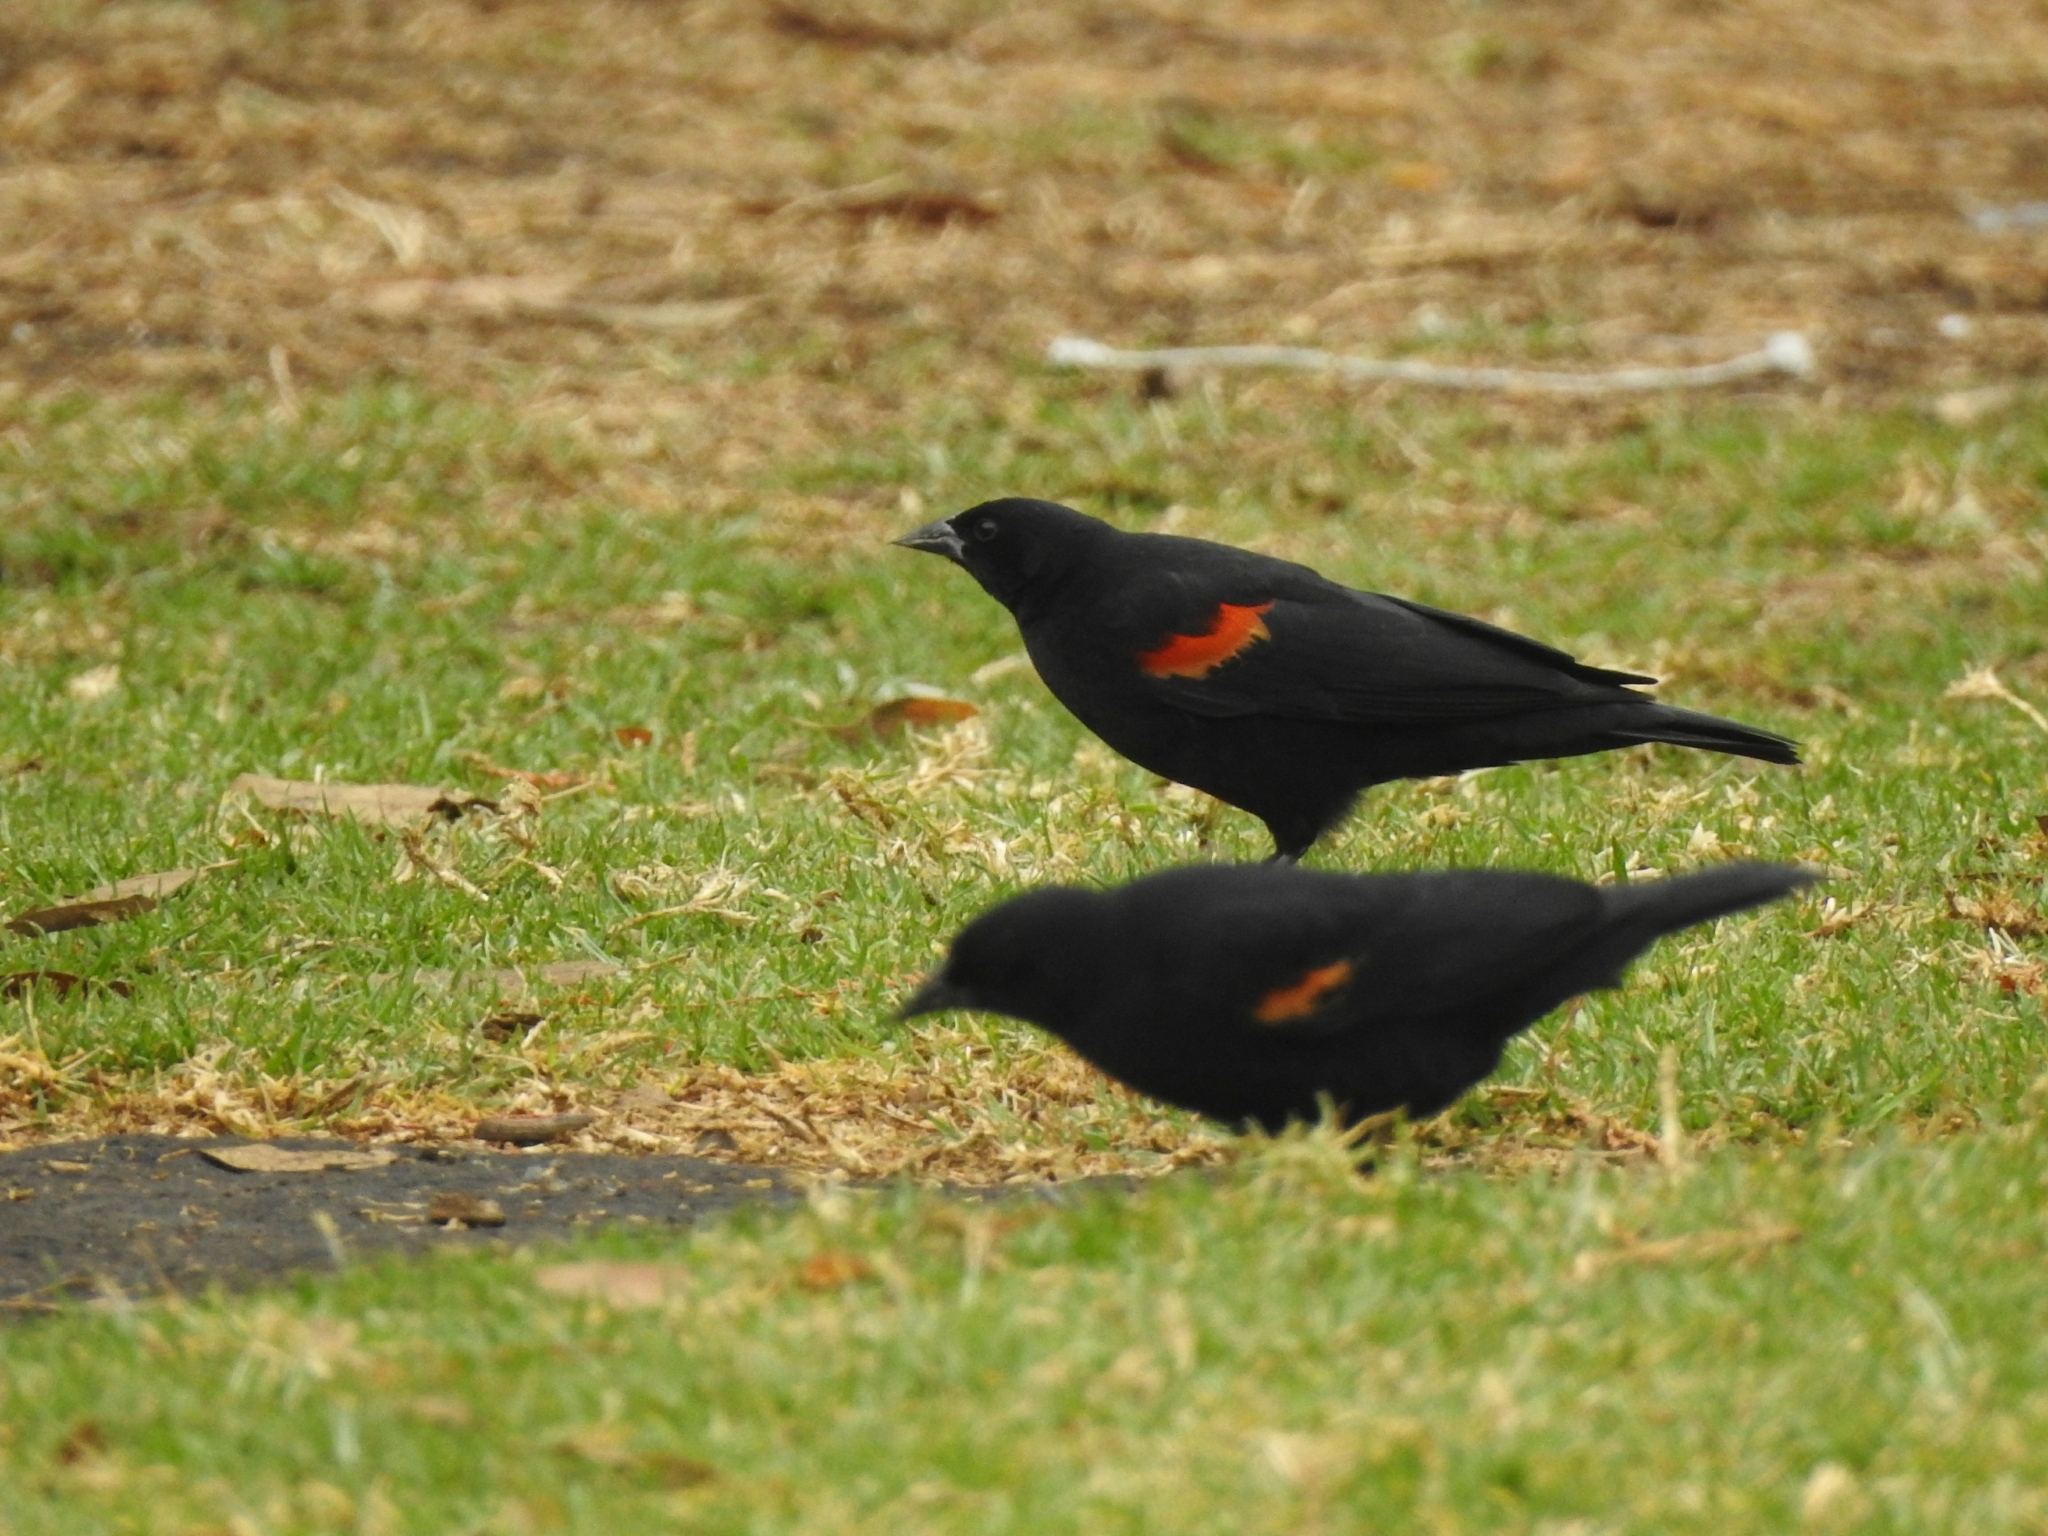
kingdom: Animalia
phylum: Chordata
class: Aves
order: Passeriformes
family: Icteridae
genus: Agelaius
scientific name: Agelaius phoeniceus
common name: Red-winged blackbird
